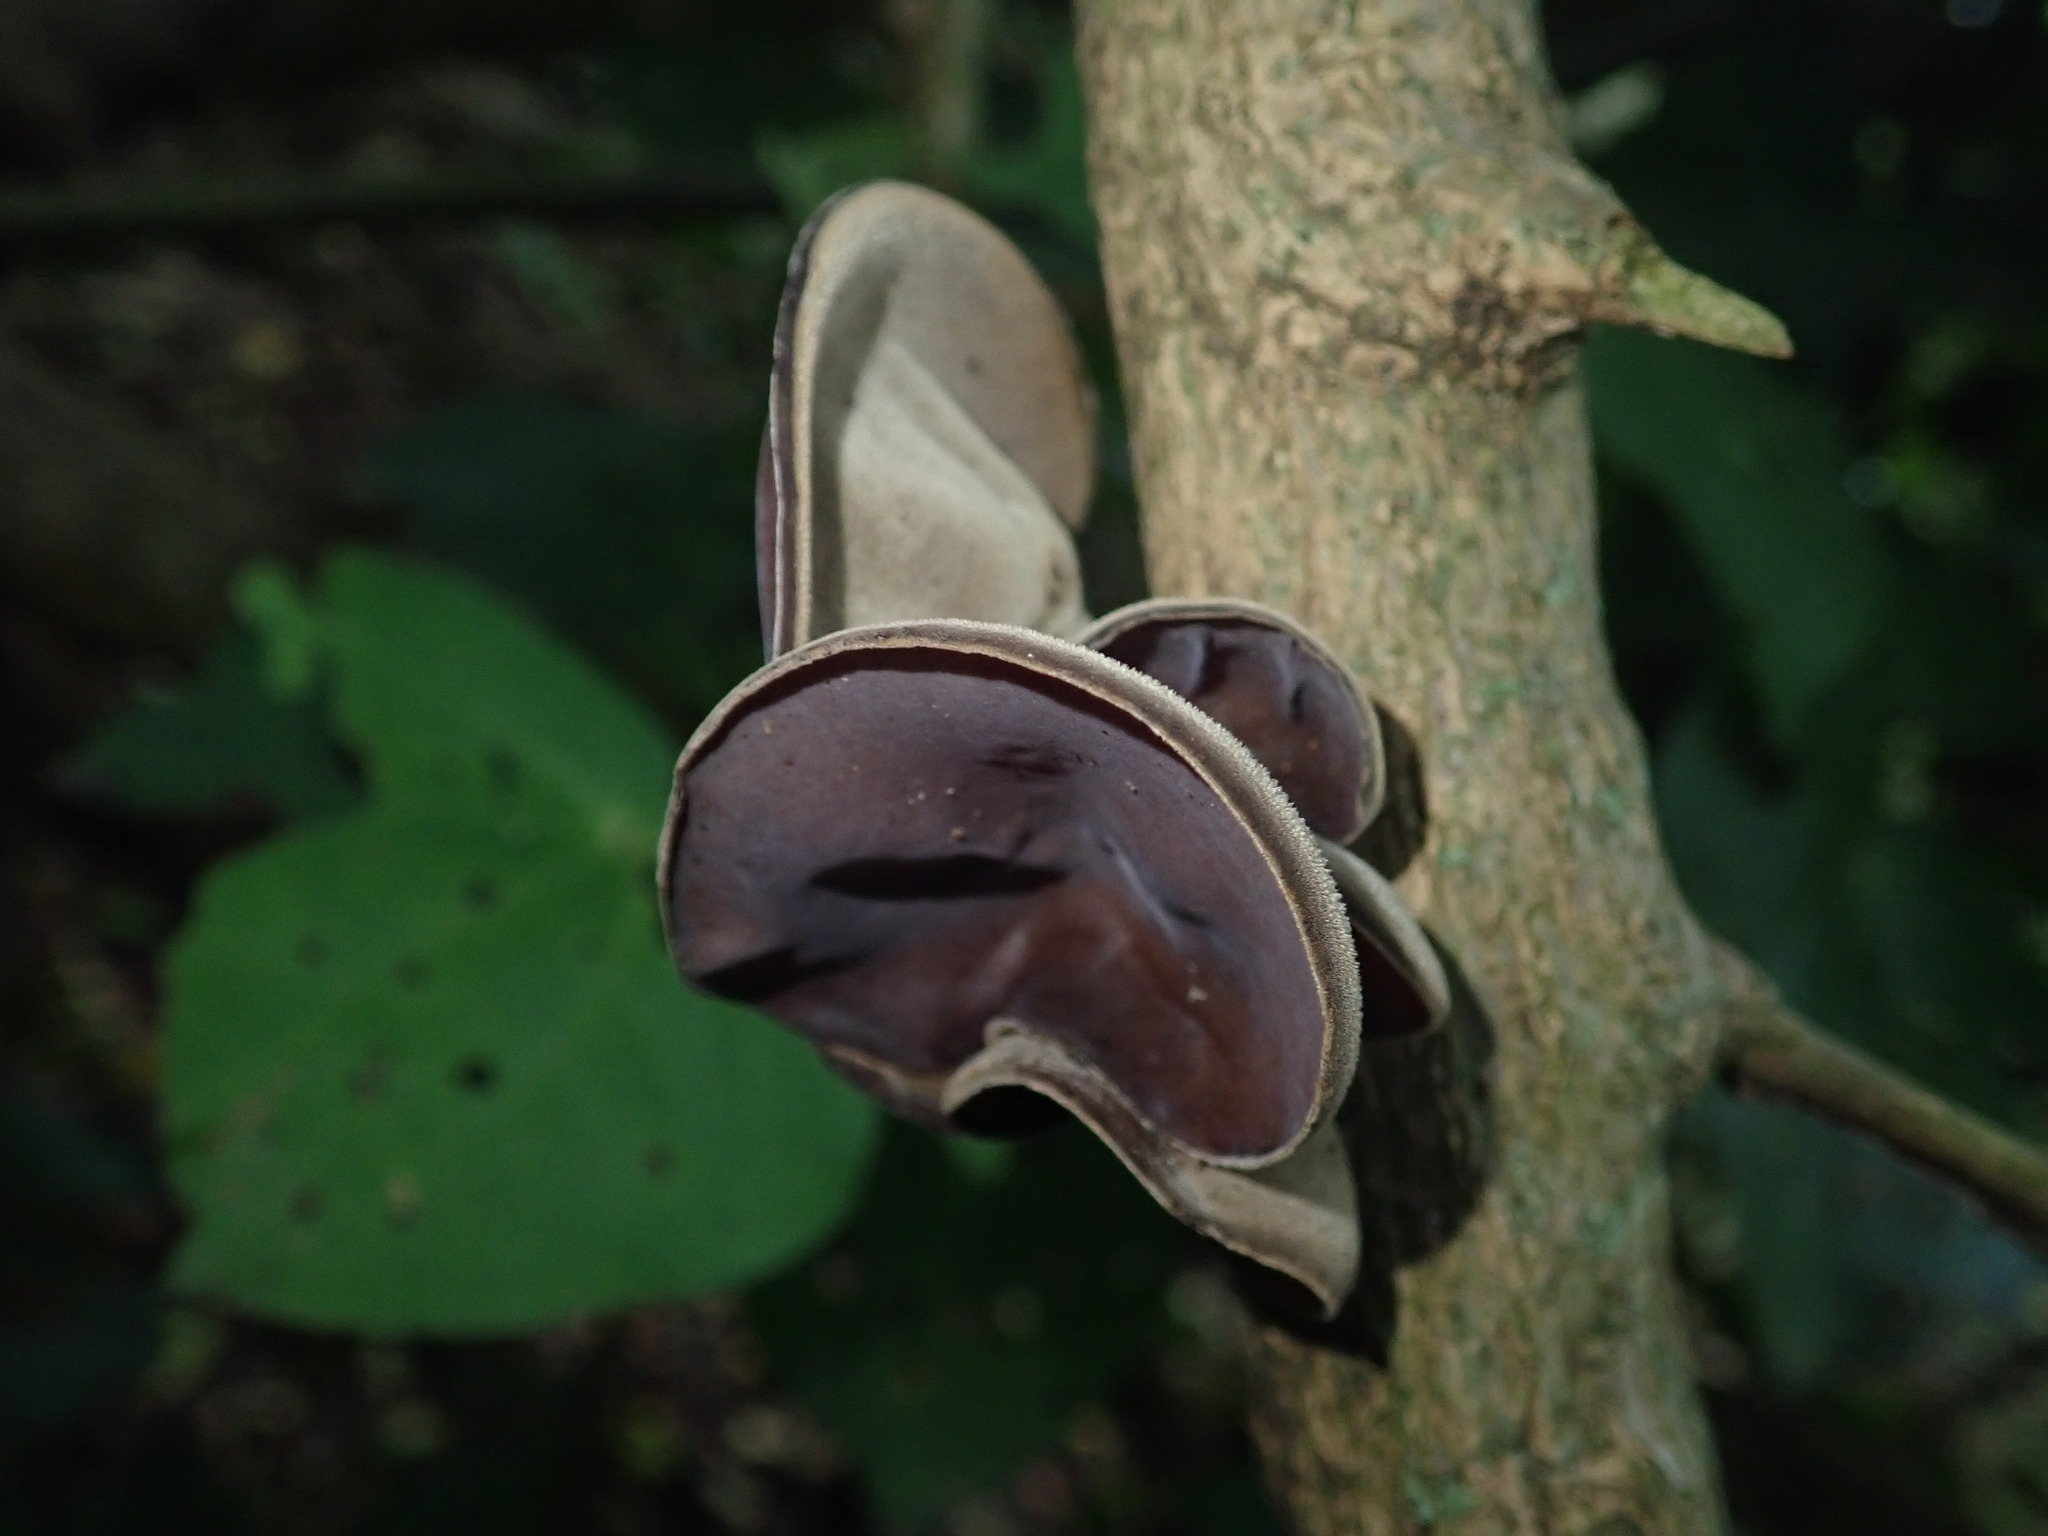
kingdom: Fungi
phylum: Basidiomycota
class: Agaricomycetes
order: Auriculariales
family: Auriculariaceae
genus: Auricularia
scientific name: Auricularia cornea
